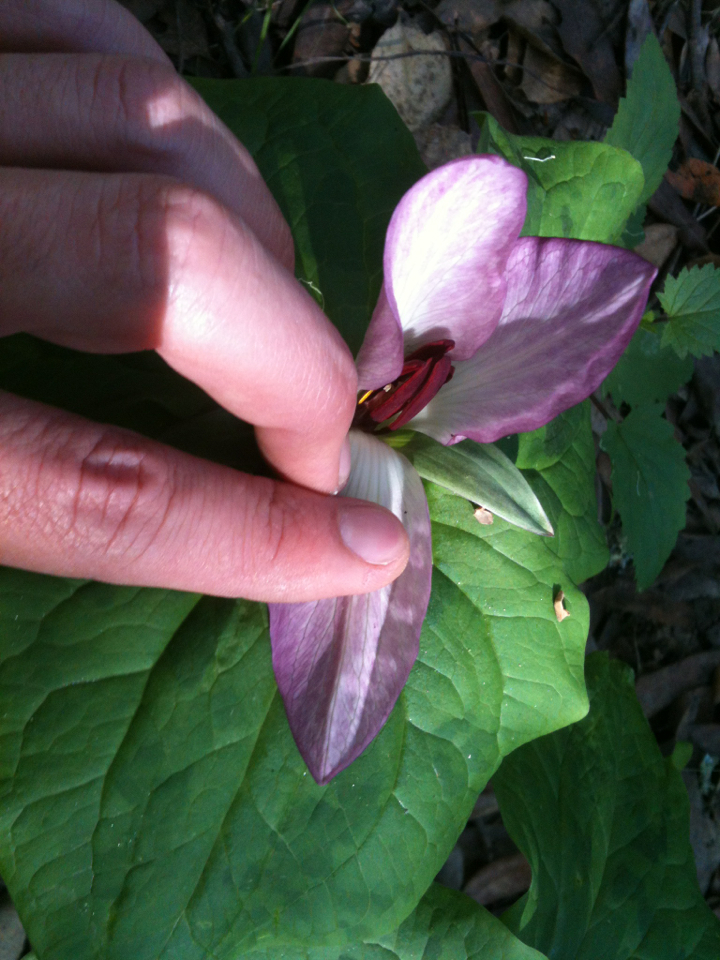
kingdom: Plantae
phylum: Tracheophyta
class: Liliopsida
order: Liliales
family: Melanthiaceae
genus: Trillium
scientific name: Trillium chloropetalum
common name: Giant trillium
